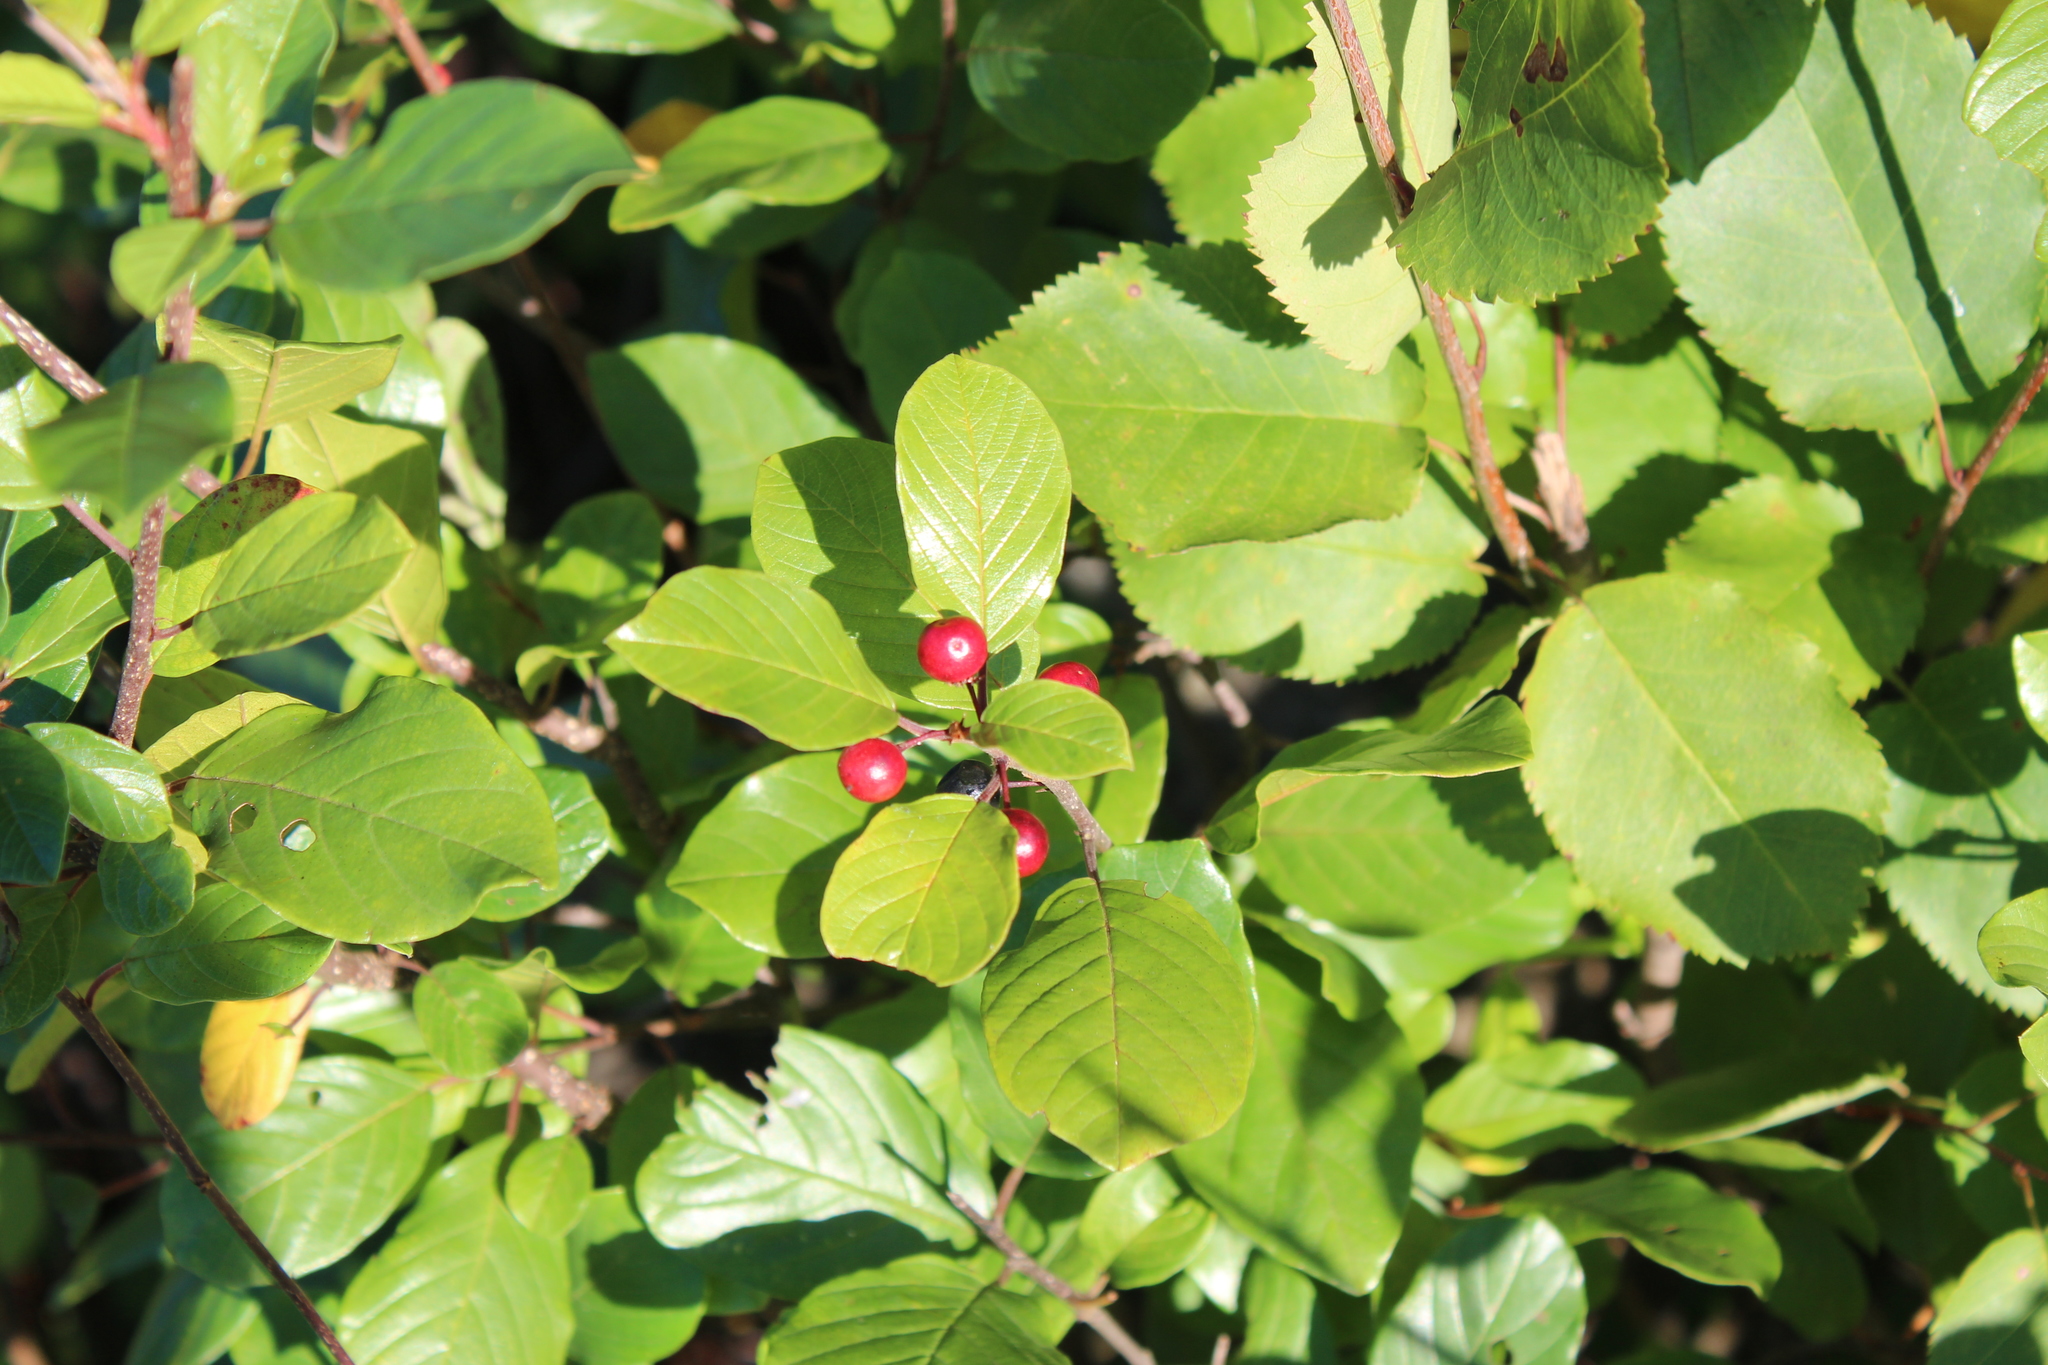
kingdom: Plantae
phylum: Tracheophyta
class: Magnoliopsida
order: Rosales
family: Rhamnaceae
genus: Frangula
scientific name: Frangula alnus
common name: Alder buckthorn
